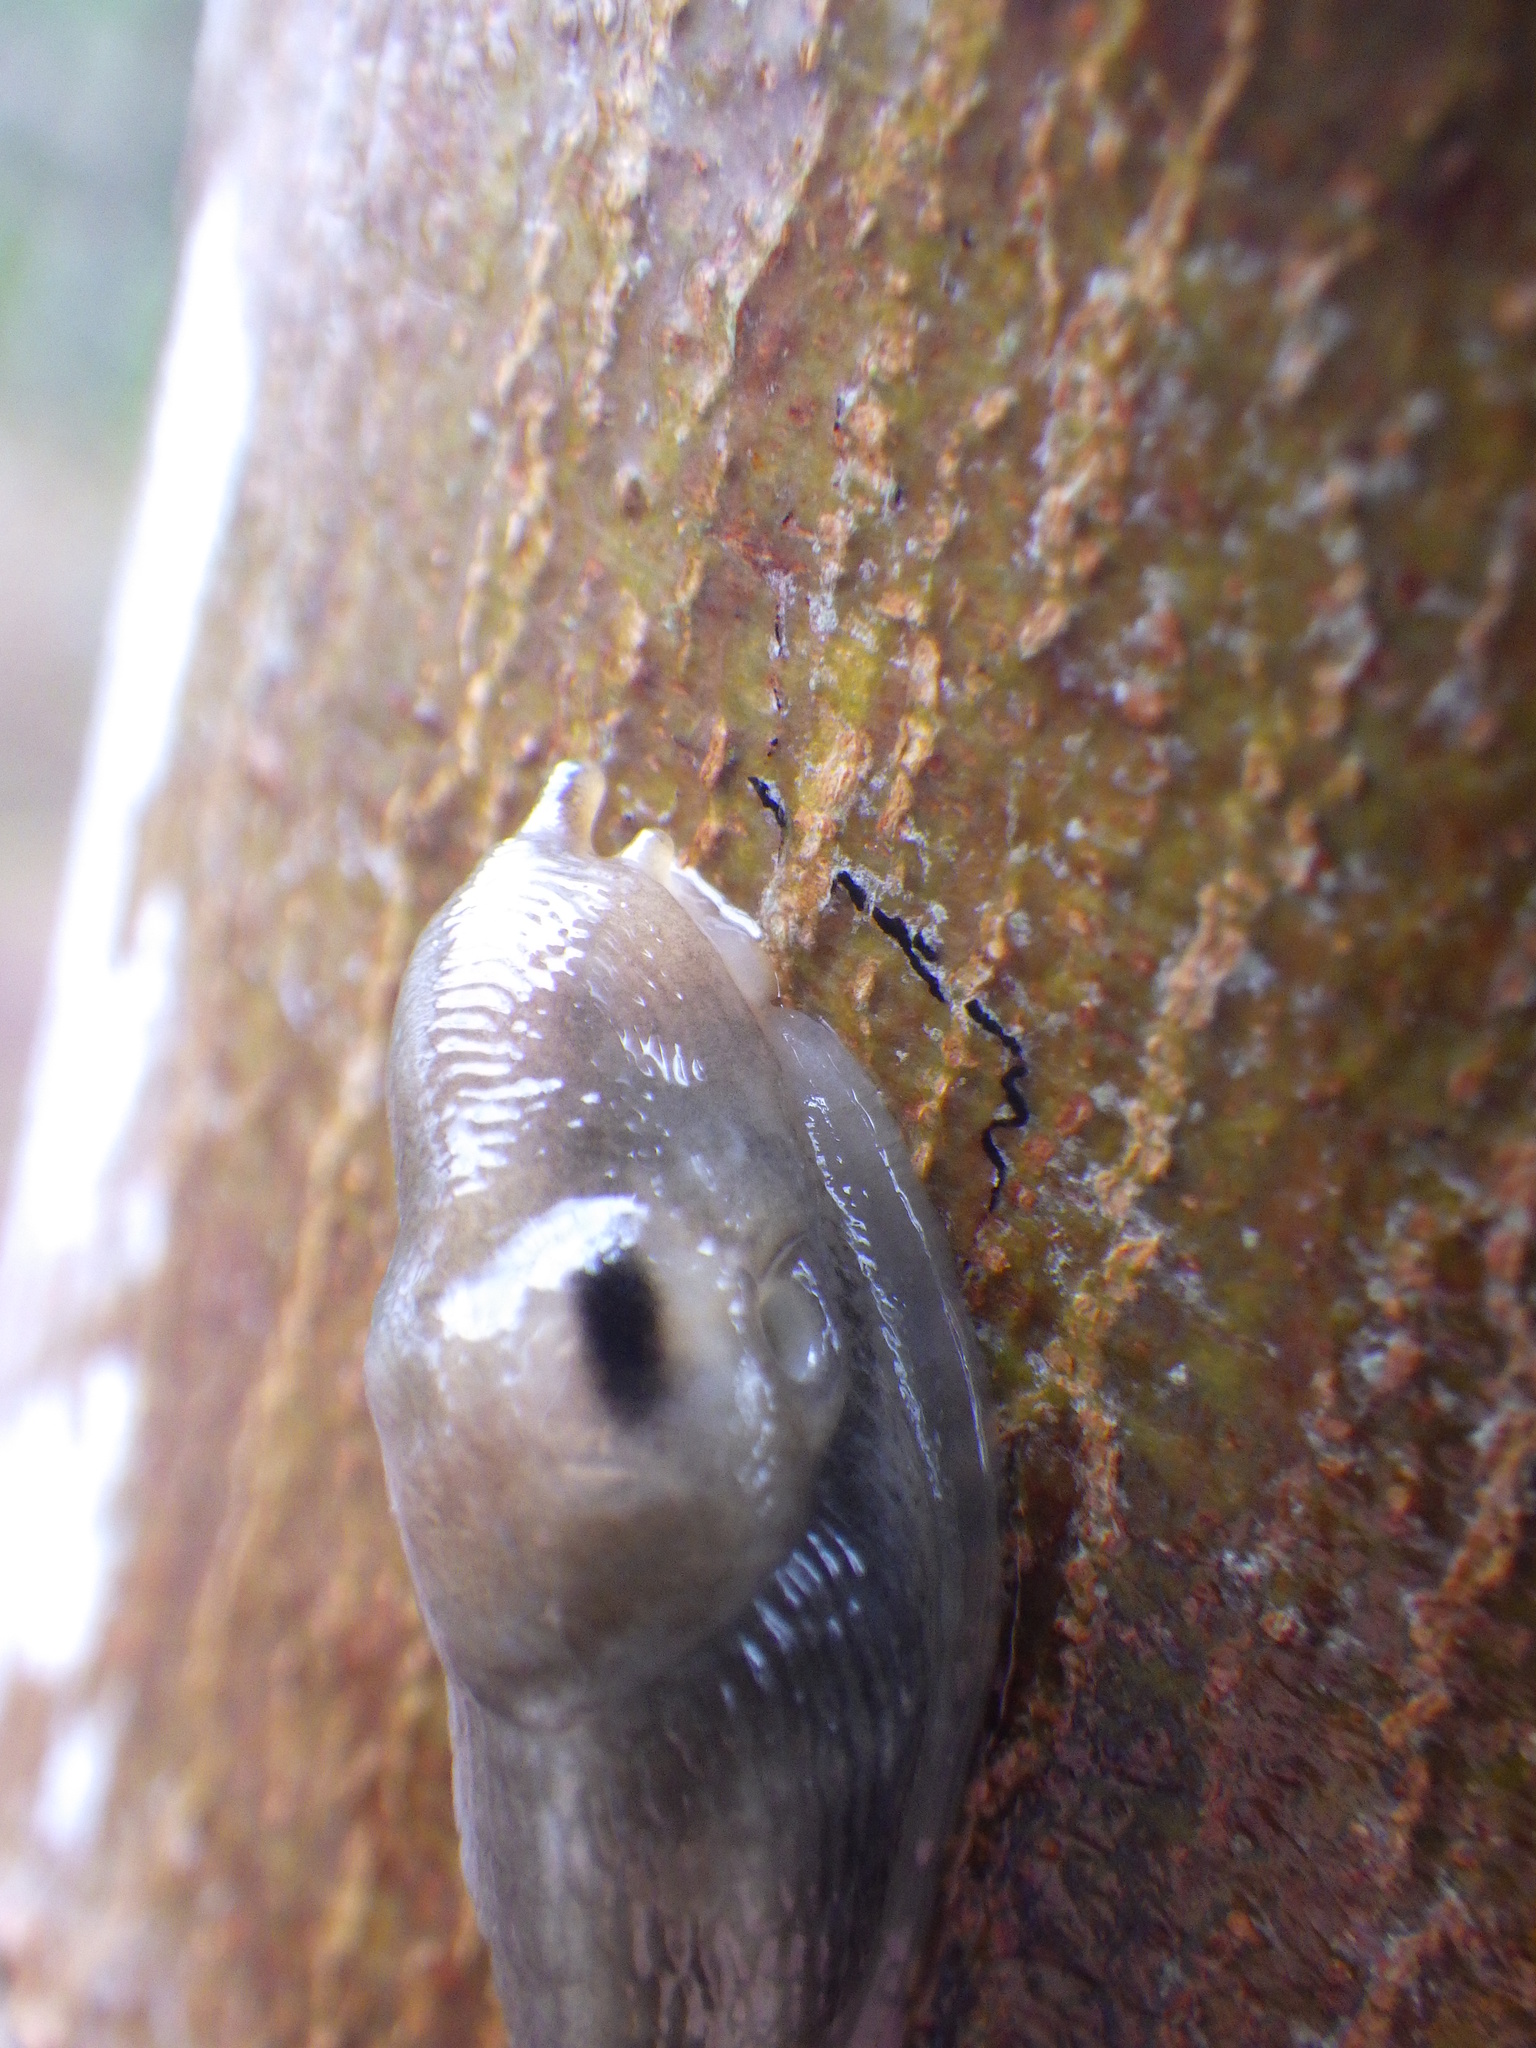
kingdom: Animalia
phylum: Mollusca
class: Gastropoda
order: Stylommatophora
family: Limacidae
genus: Lehmannia
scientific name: Lehmannia marginata
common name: Tree slug
